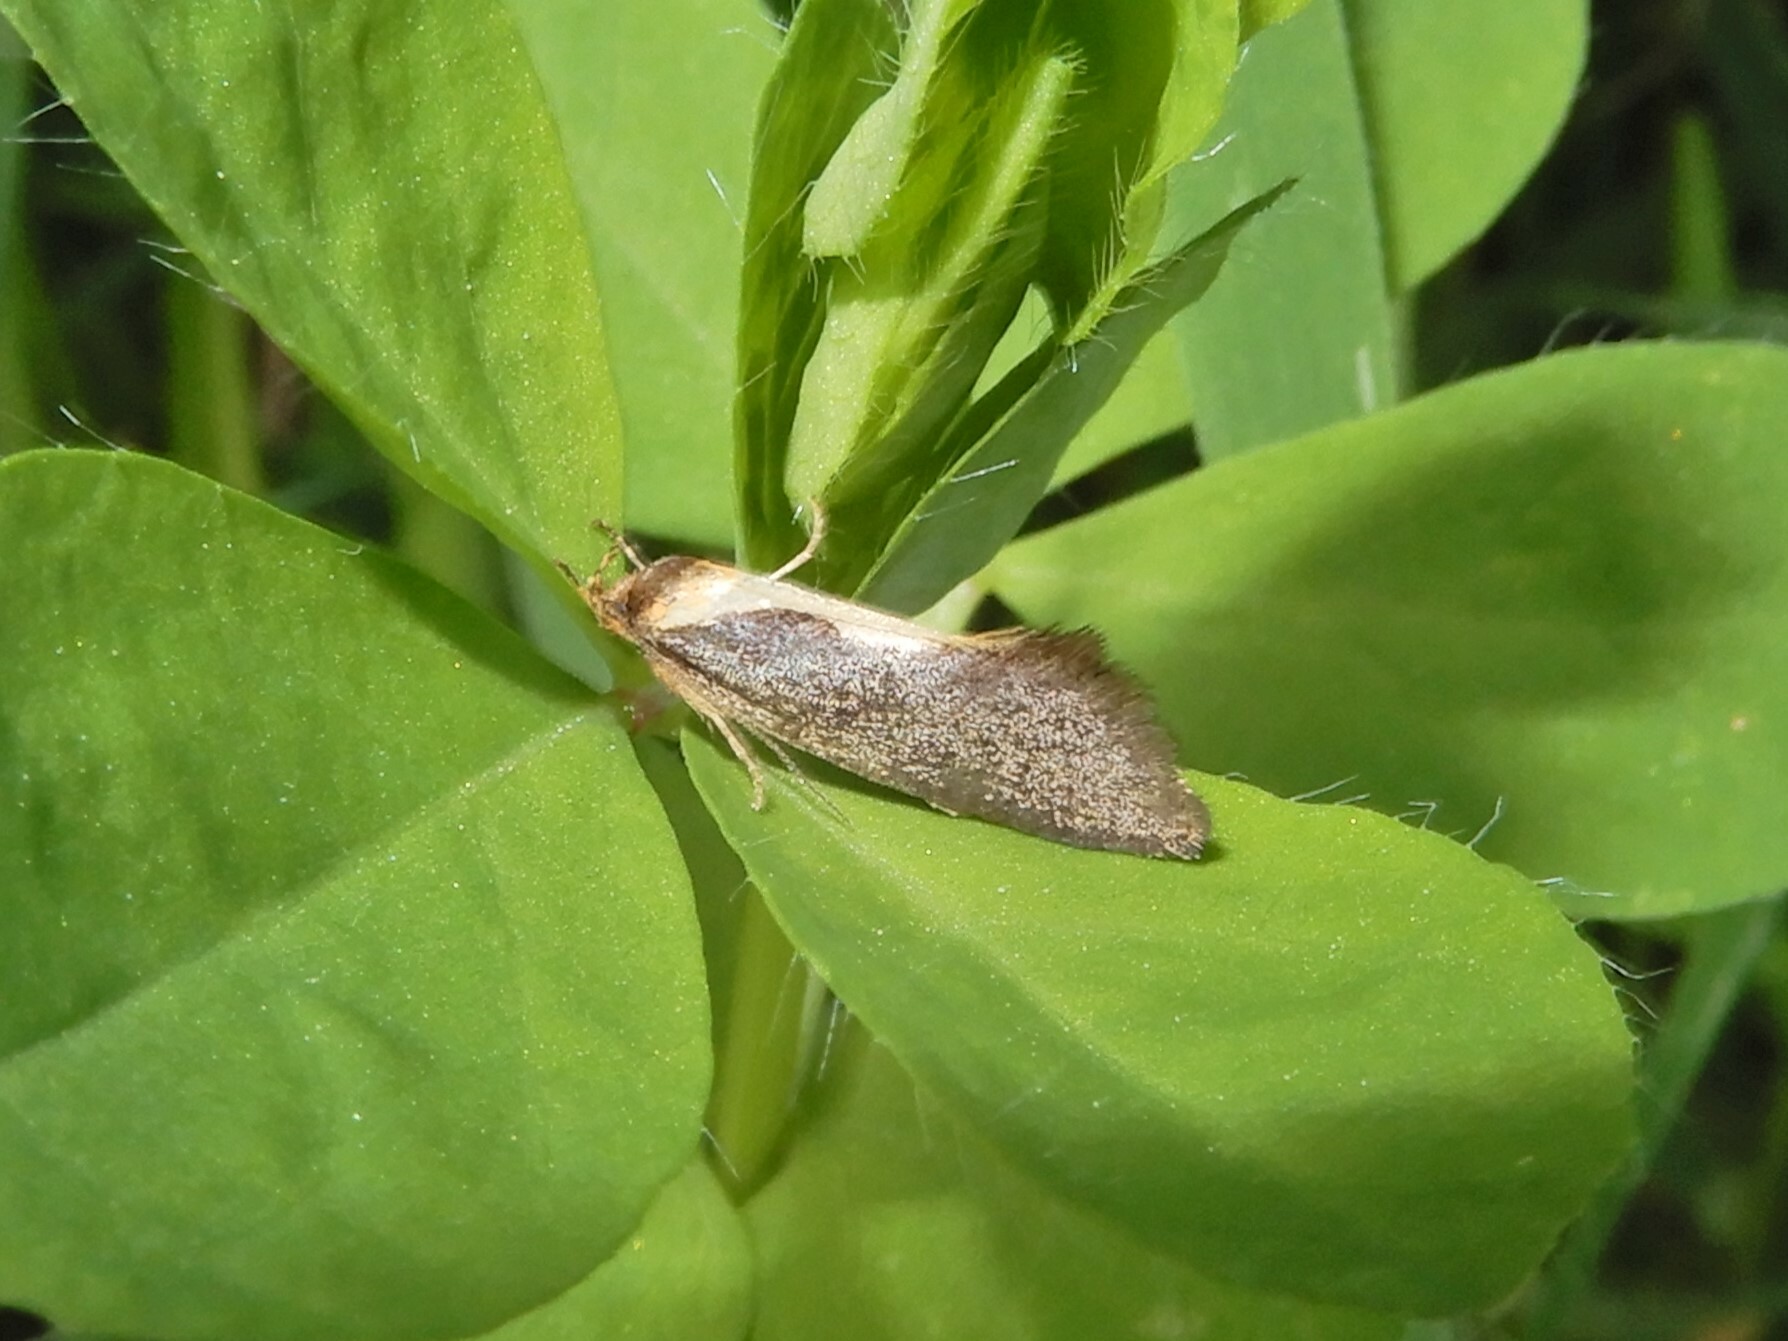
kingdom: Animalia
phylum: Arthropoda
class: Insecta
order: Lepidoptera
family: Oecophoridae
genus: Tingena
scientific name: Tingena basella
